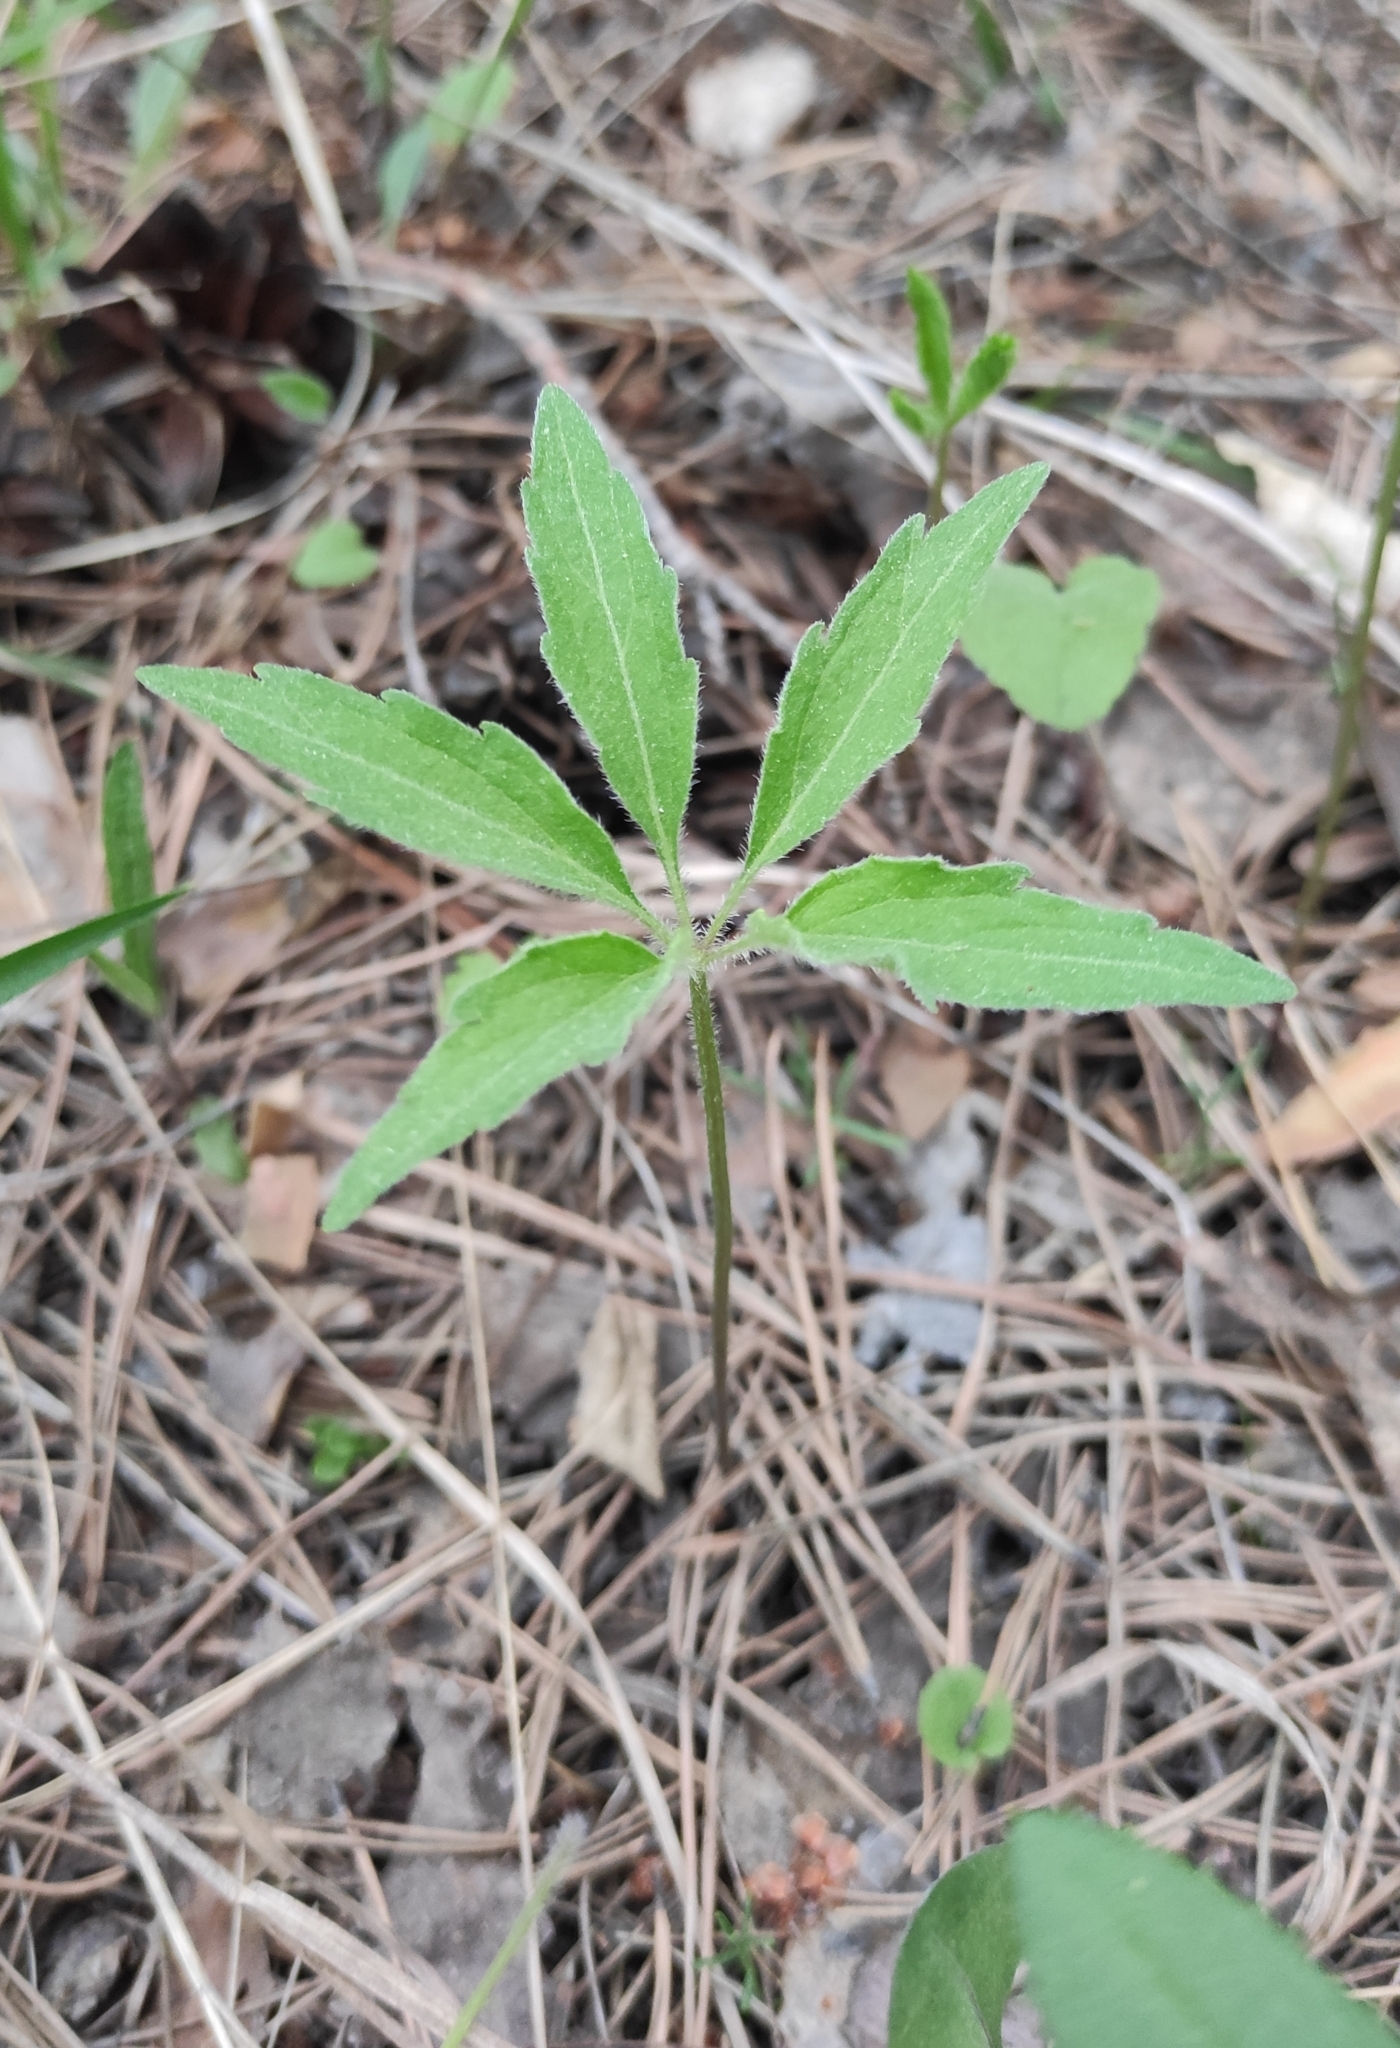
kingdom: Plantae
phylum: Tracheophyta
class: Magnoliopsida
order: Malpighiales
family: Violaceae
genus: Viola
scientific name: Viola dactyloides
